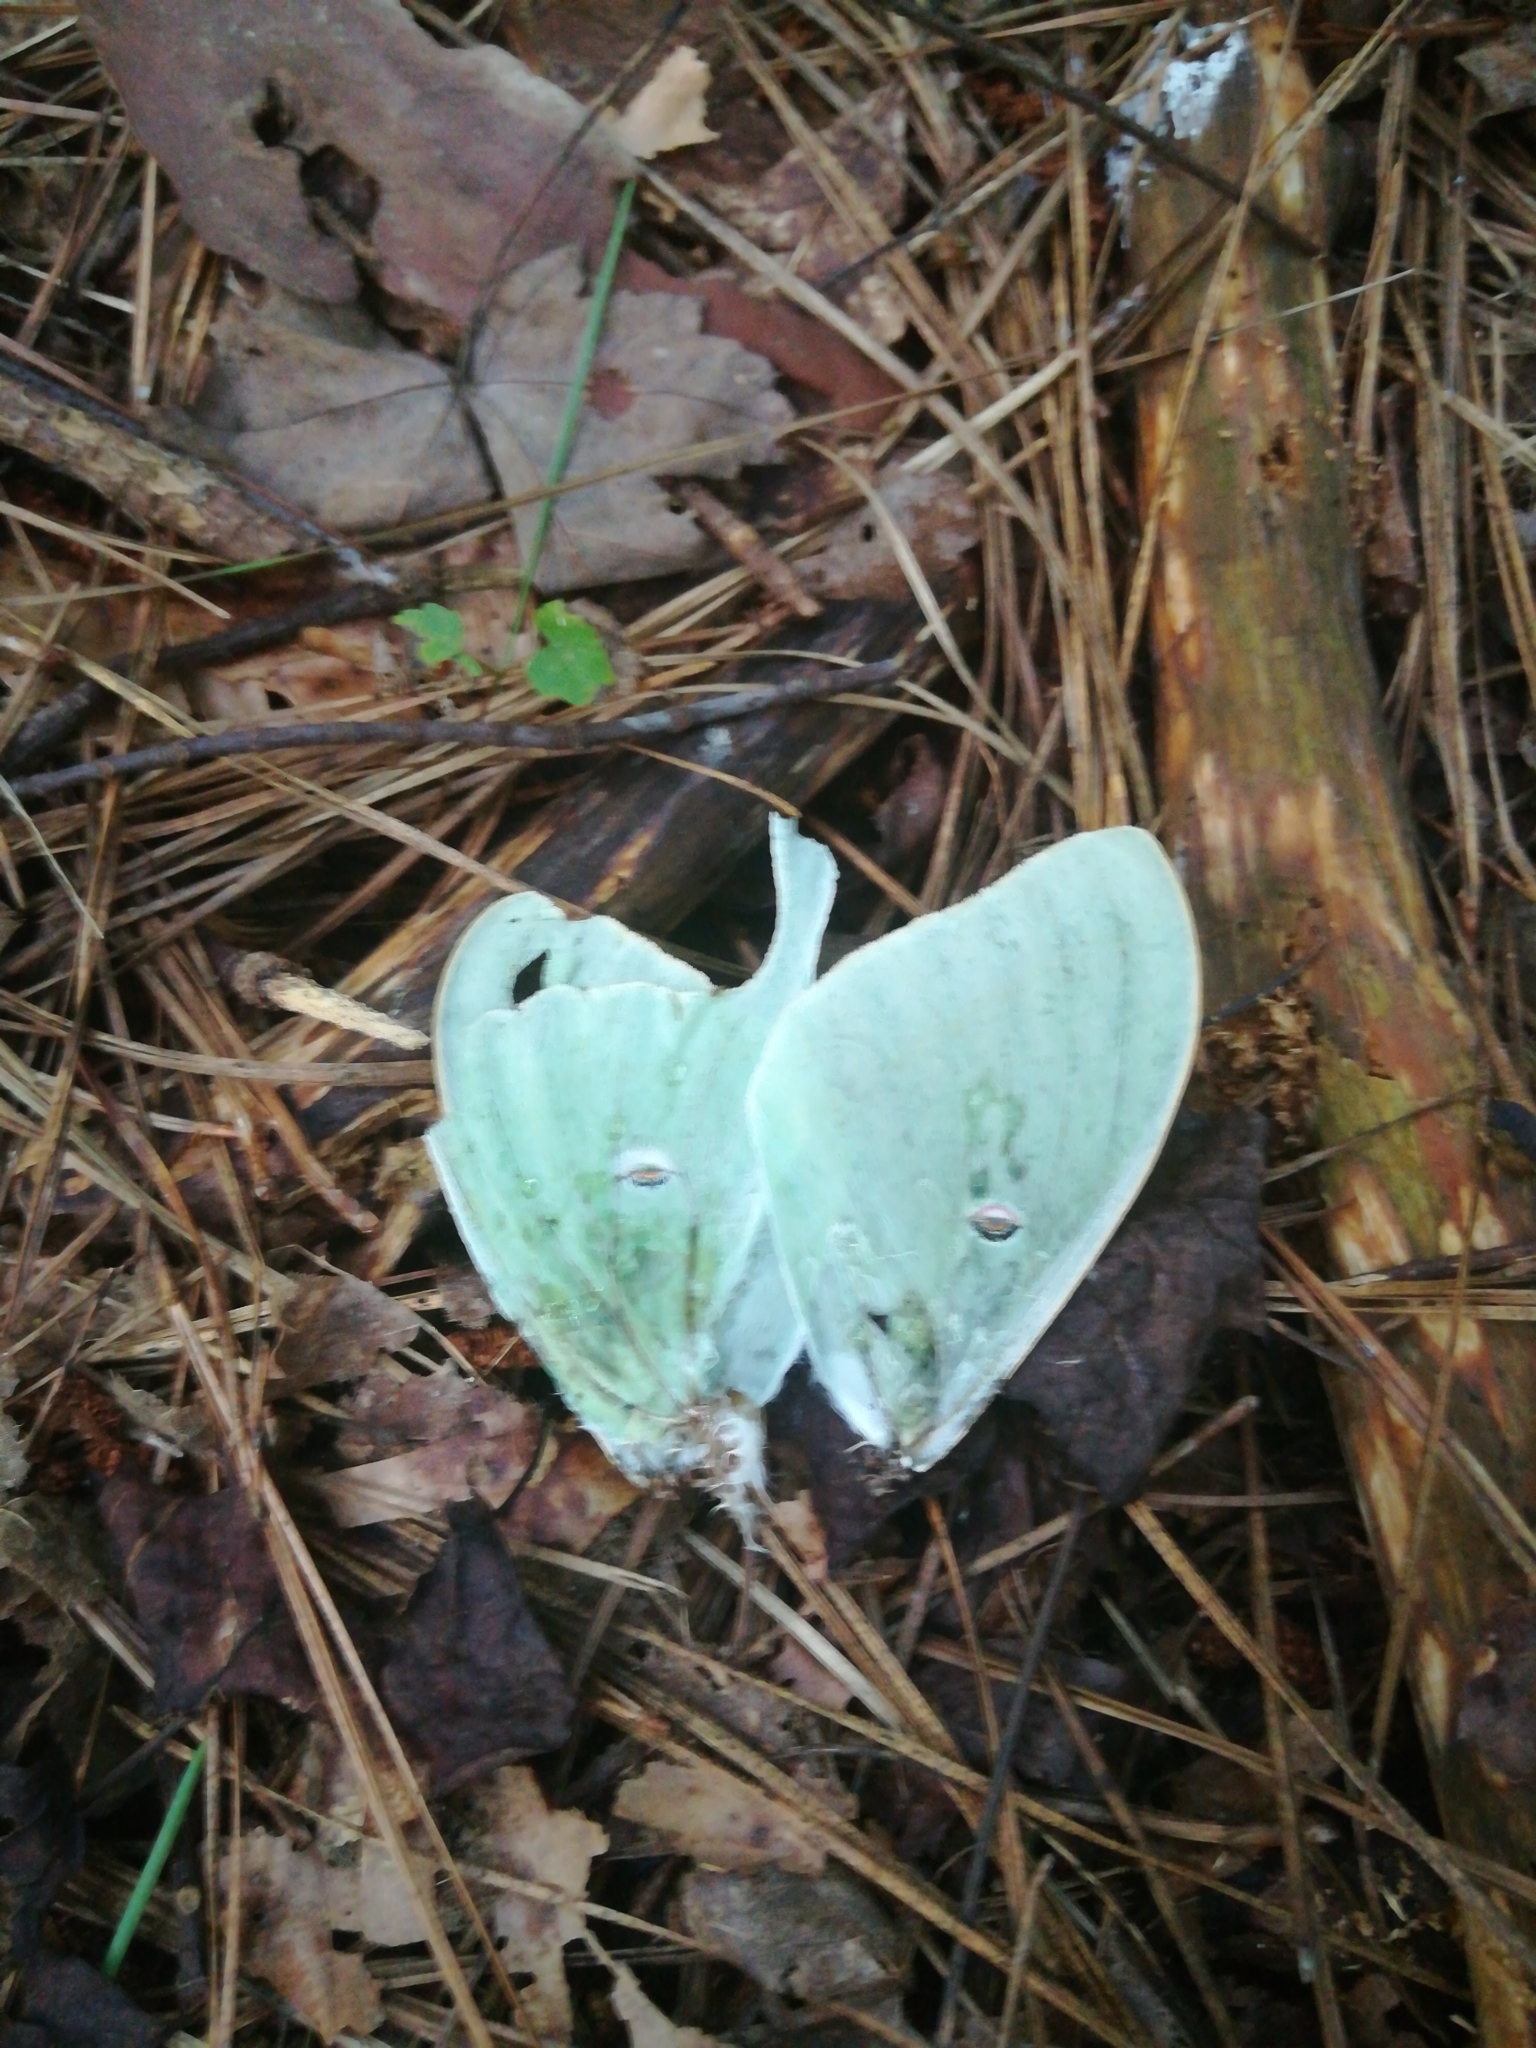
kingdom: Animalia
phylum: Arthropoda
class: Insecta
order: Lepidoptera
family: Saturniidae
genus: Actias
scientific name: Actias luna
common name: Luna moth
